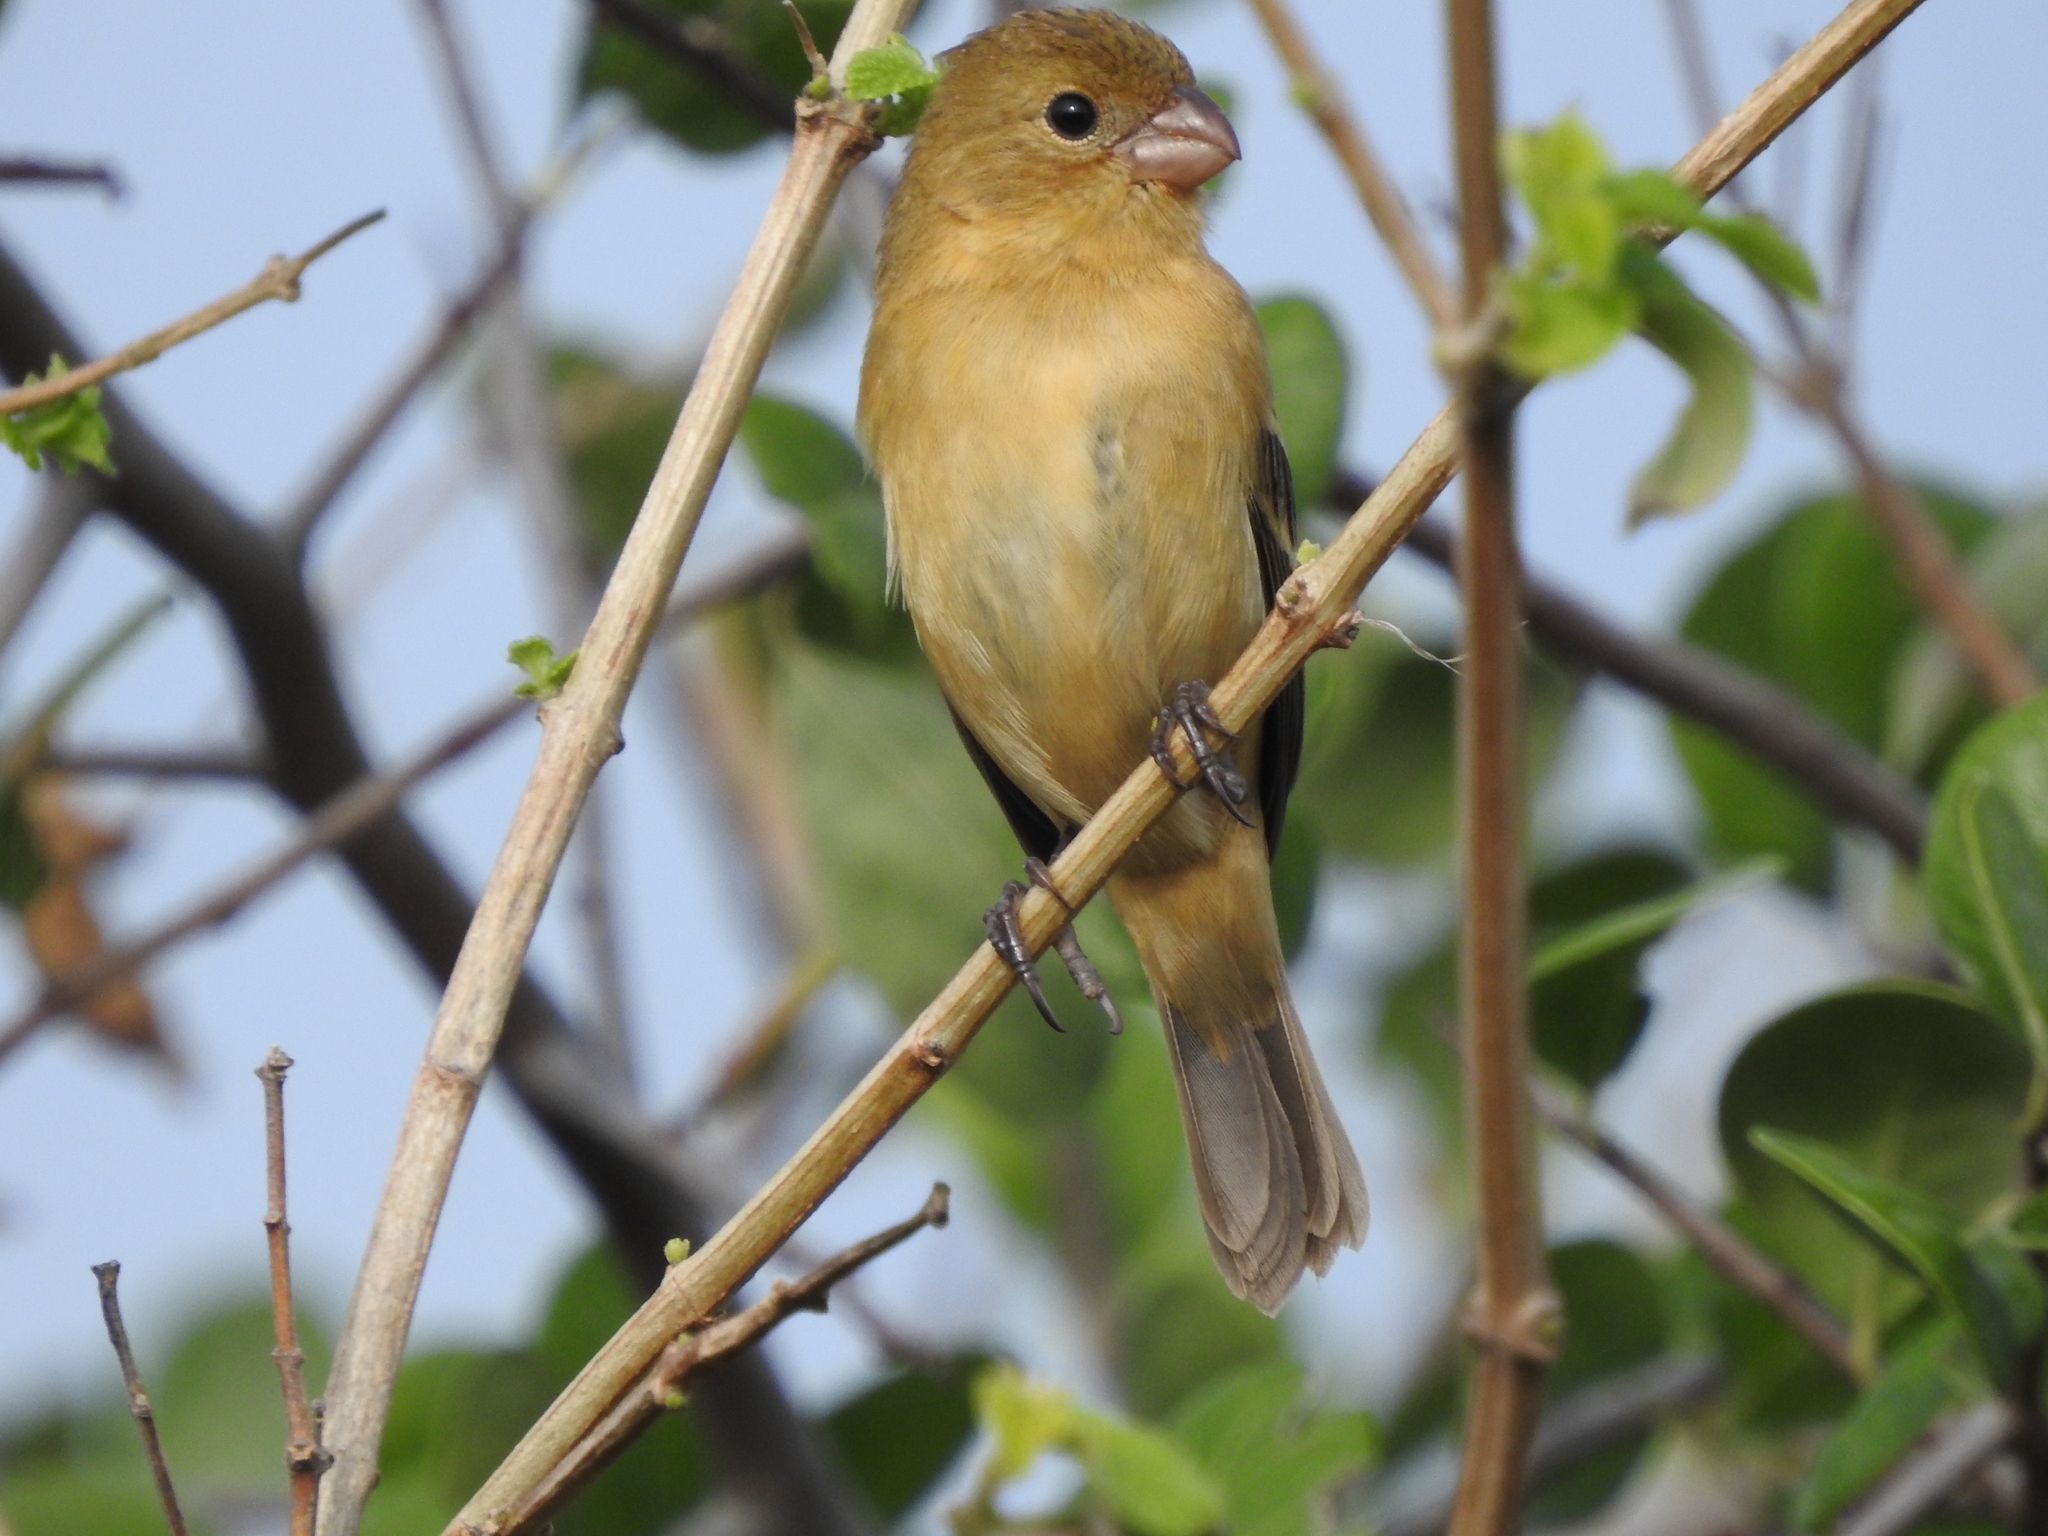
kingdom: Animalia
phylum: Chordata
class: Aves
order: Passeriformes
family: Thraupidae
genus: Sporophila
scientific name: Sporophila morelleti
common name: Morelet's seedeater
